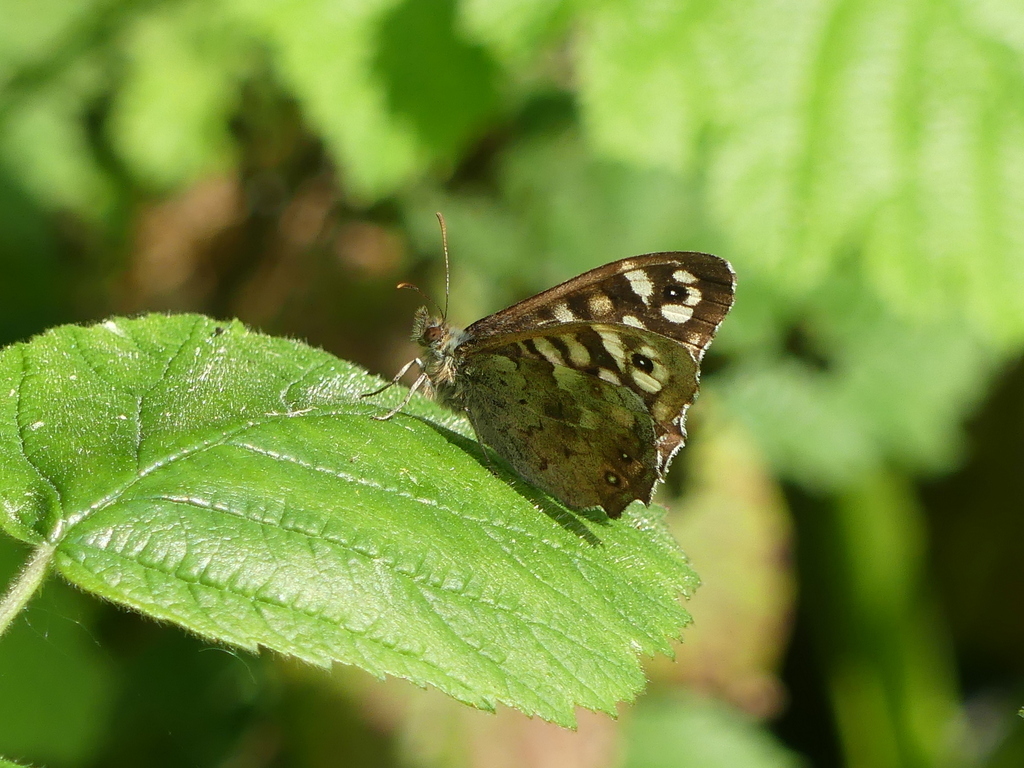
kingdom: Animalia
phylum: Arthropoda
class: Insecta
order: Lepidoptera
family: Nymphalidae
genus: Pararge
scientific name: Pararge aegeria
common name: Speckled wood
